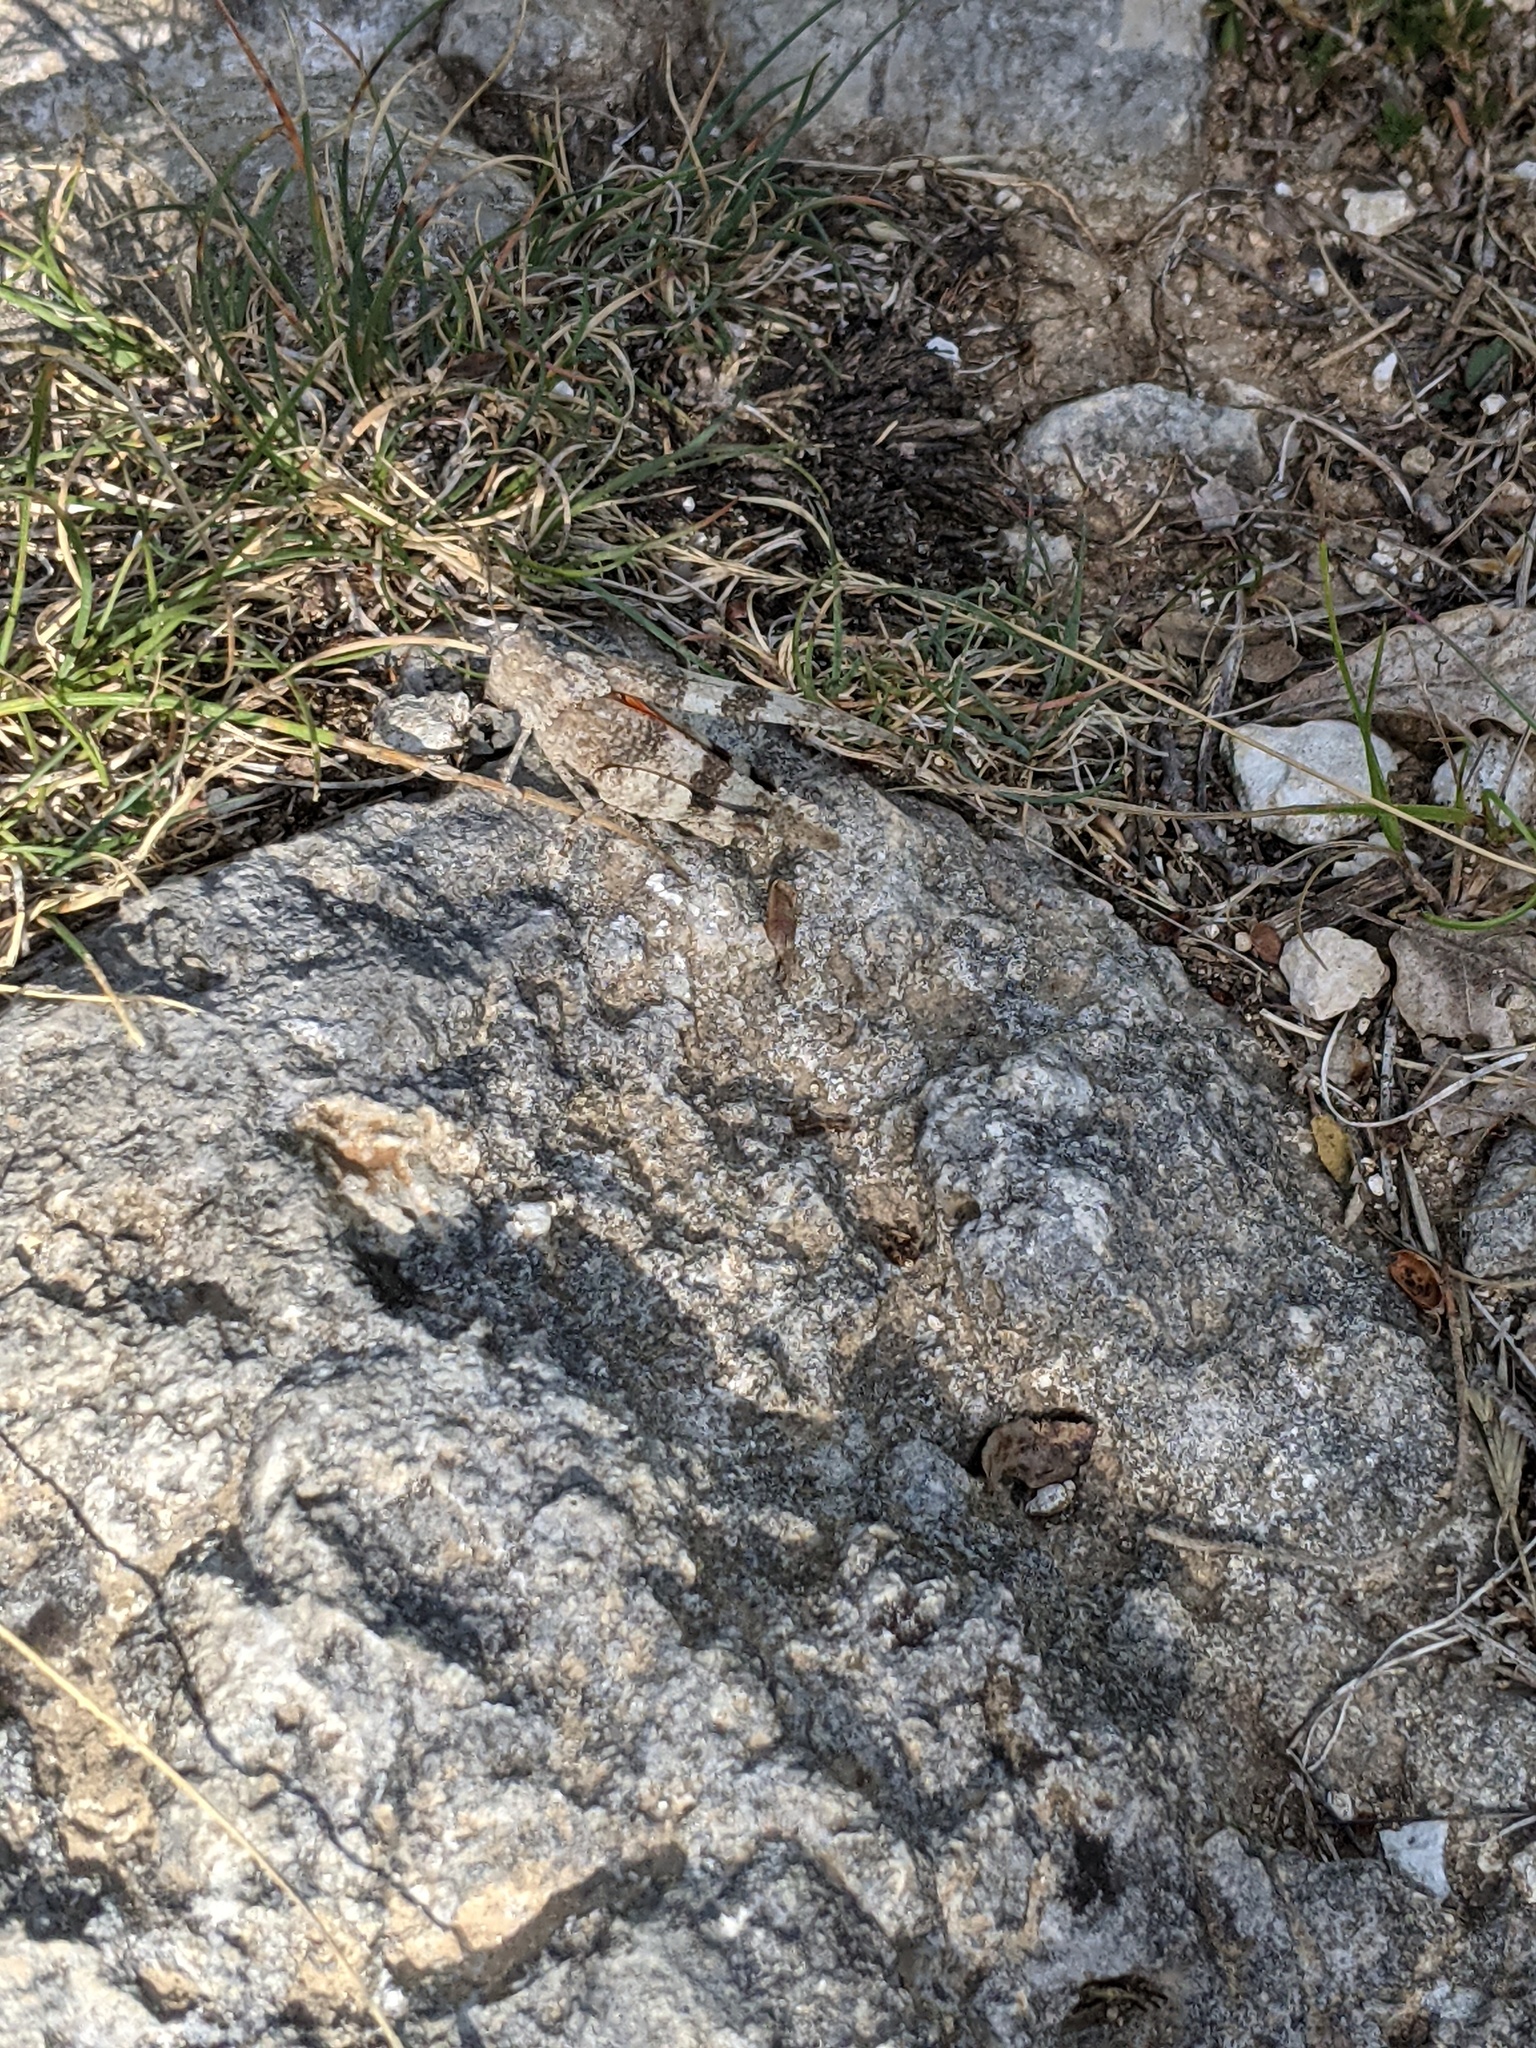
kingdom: Animalia
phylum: Arthropoda
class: Insecta
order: Orthoptera
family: Acrididae
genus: Oedipoda
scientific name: Oedipoda germanica
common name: Red band-winged grasshopper
